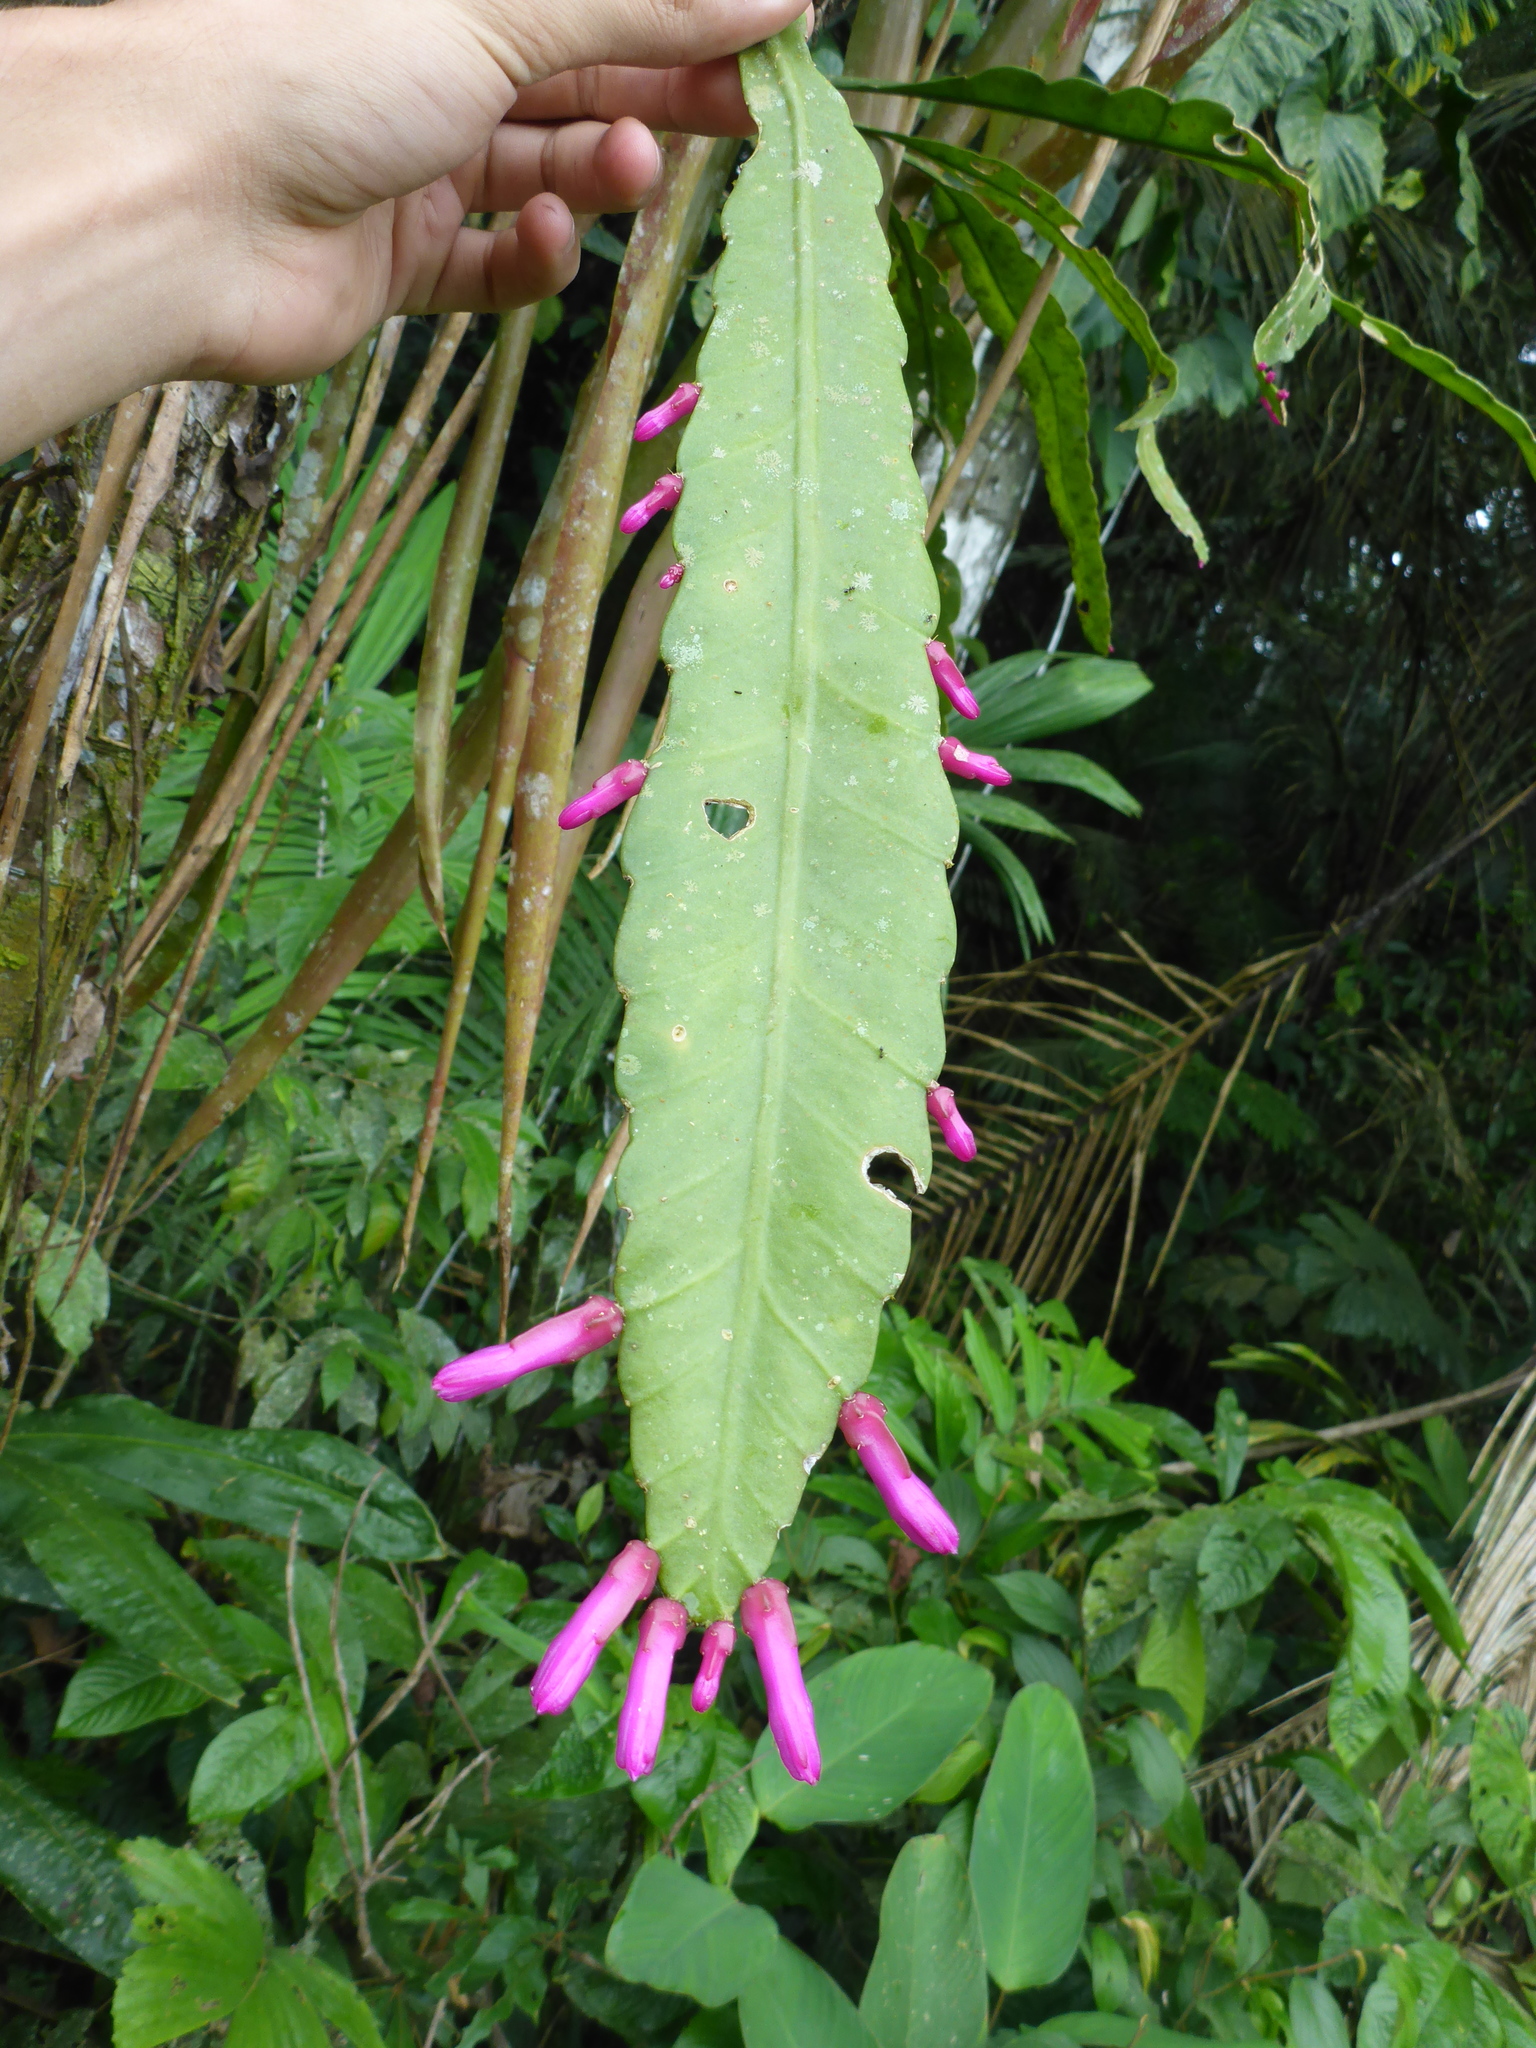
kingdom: Plantae
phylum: Tracheophyta
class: Magnoliopsida
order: Caryophyllales
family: Cactaceae
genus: Pseudorhipsalis
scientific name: Pseudorhipsalis amazonica
